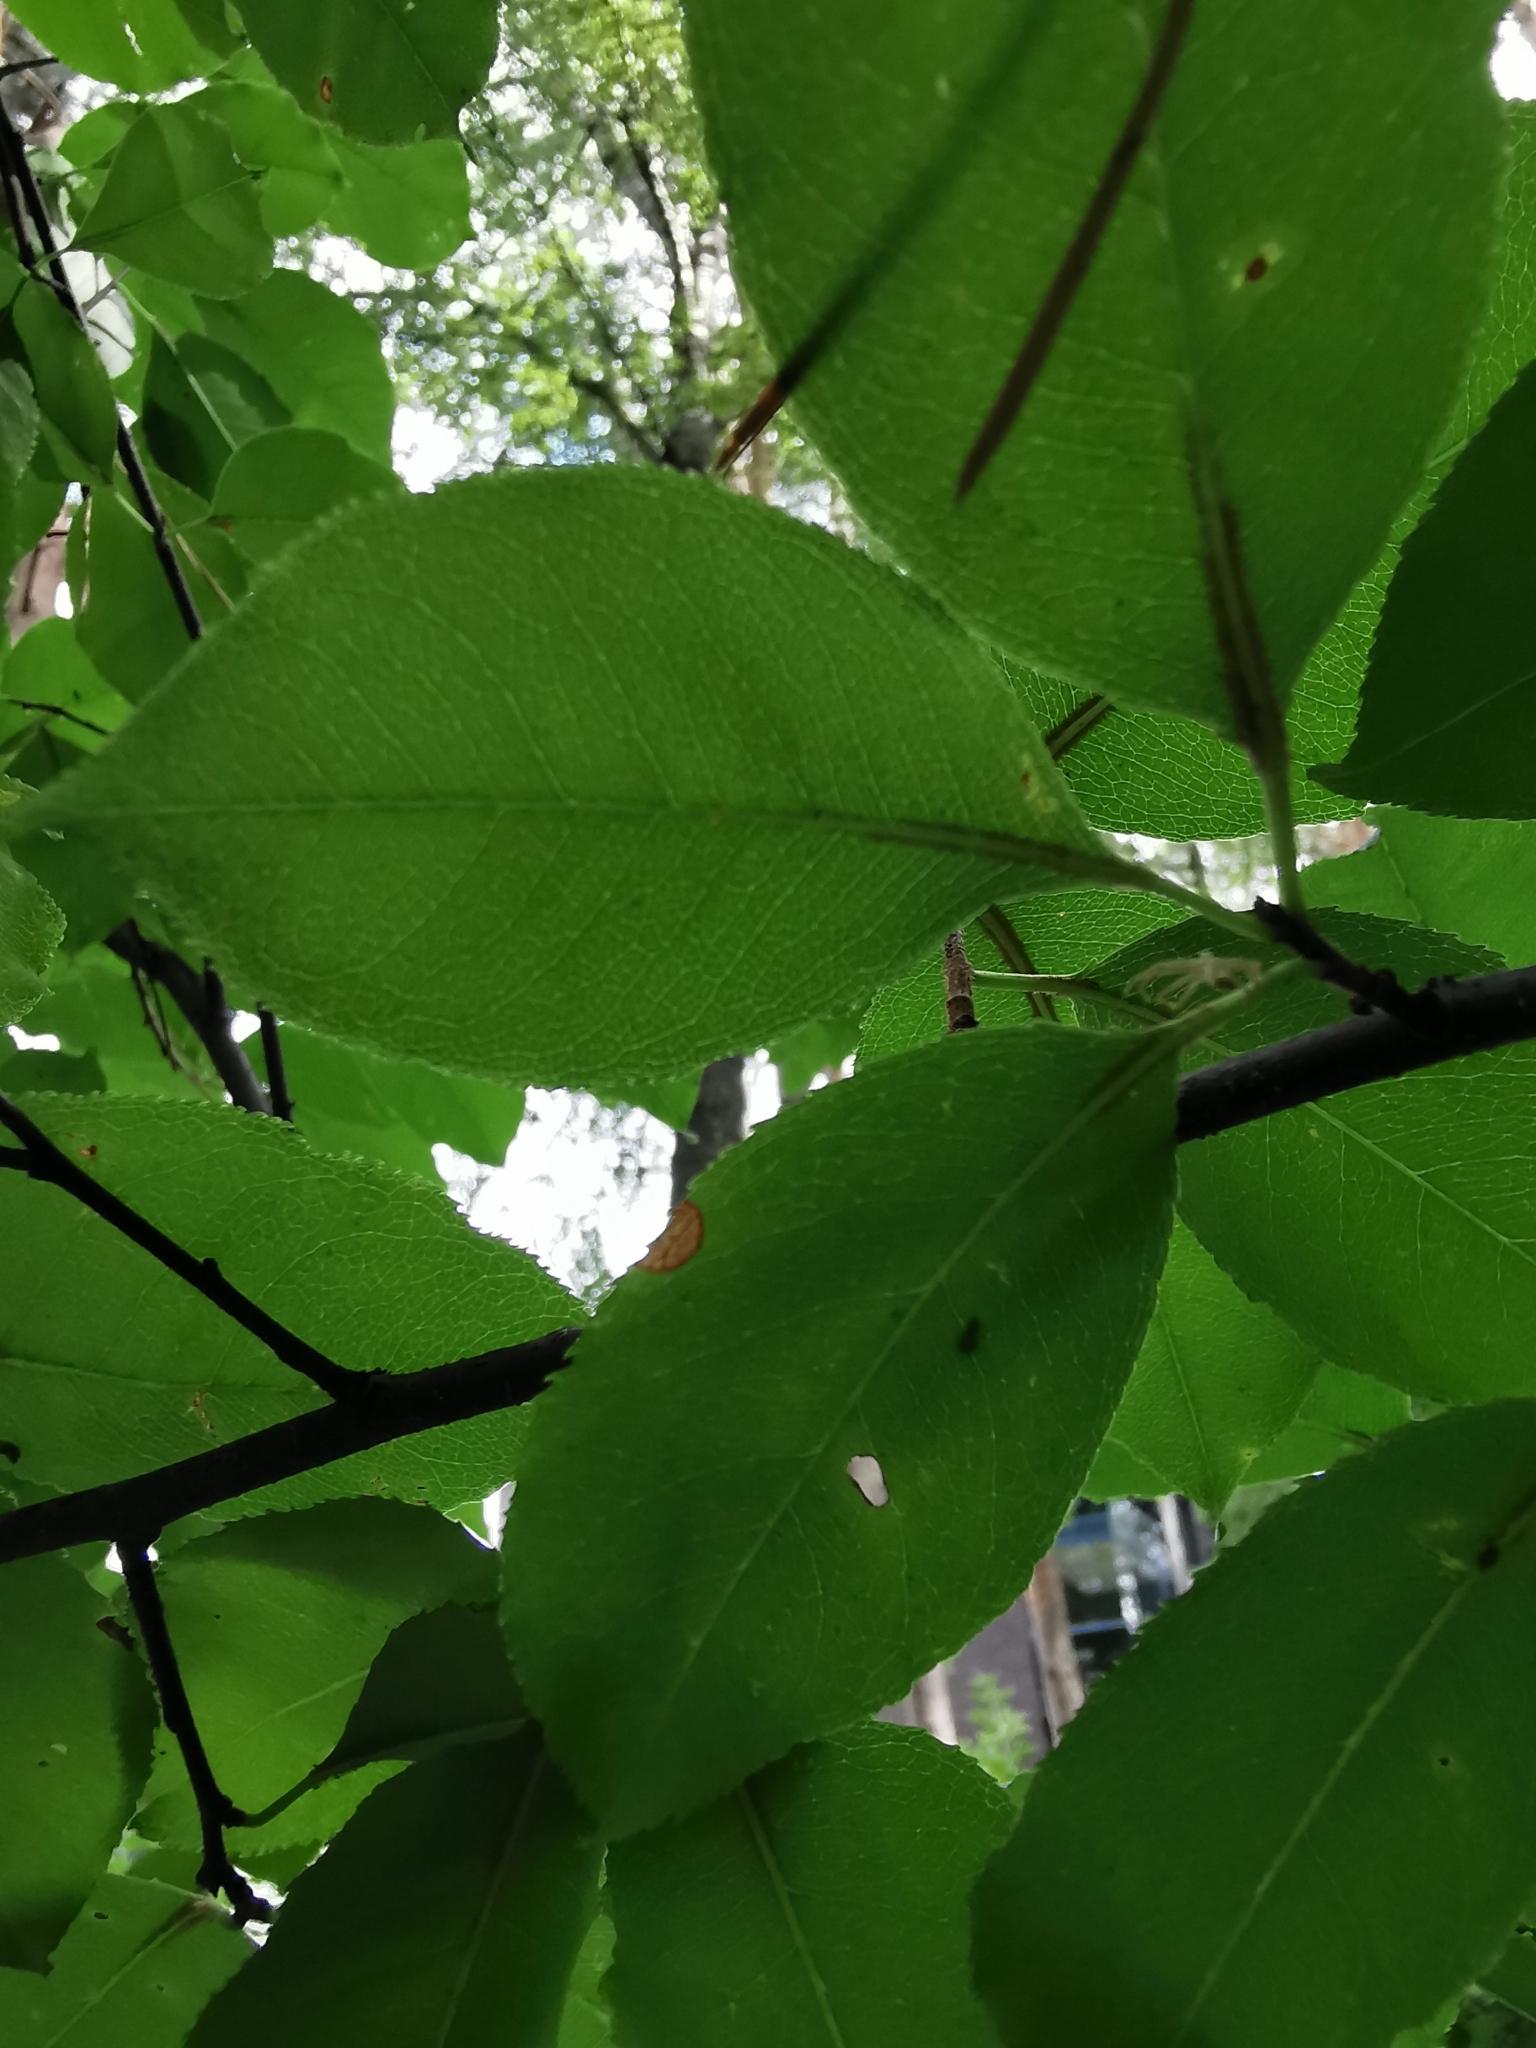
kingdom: Plantae
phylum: Tracheophyta
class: Magnoliopsida
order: Rosales
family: Rosaceae
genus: Prunus
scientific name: Prunus serotina
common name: Black cherry
